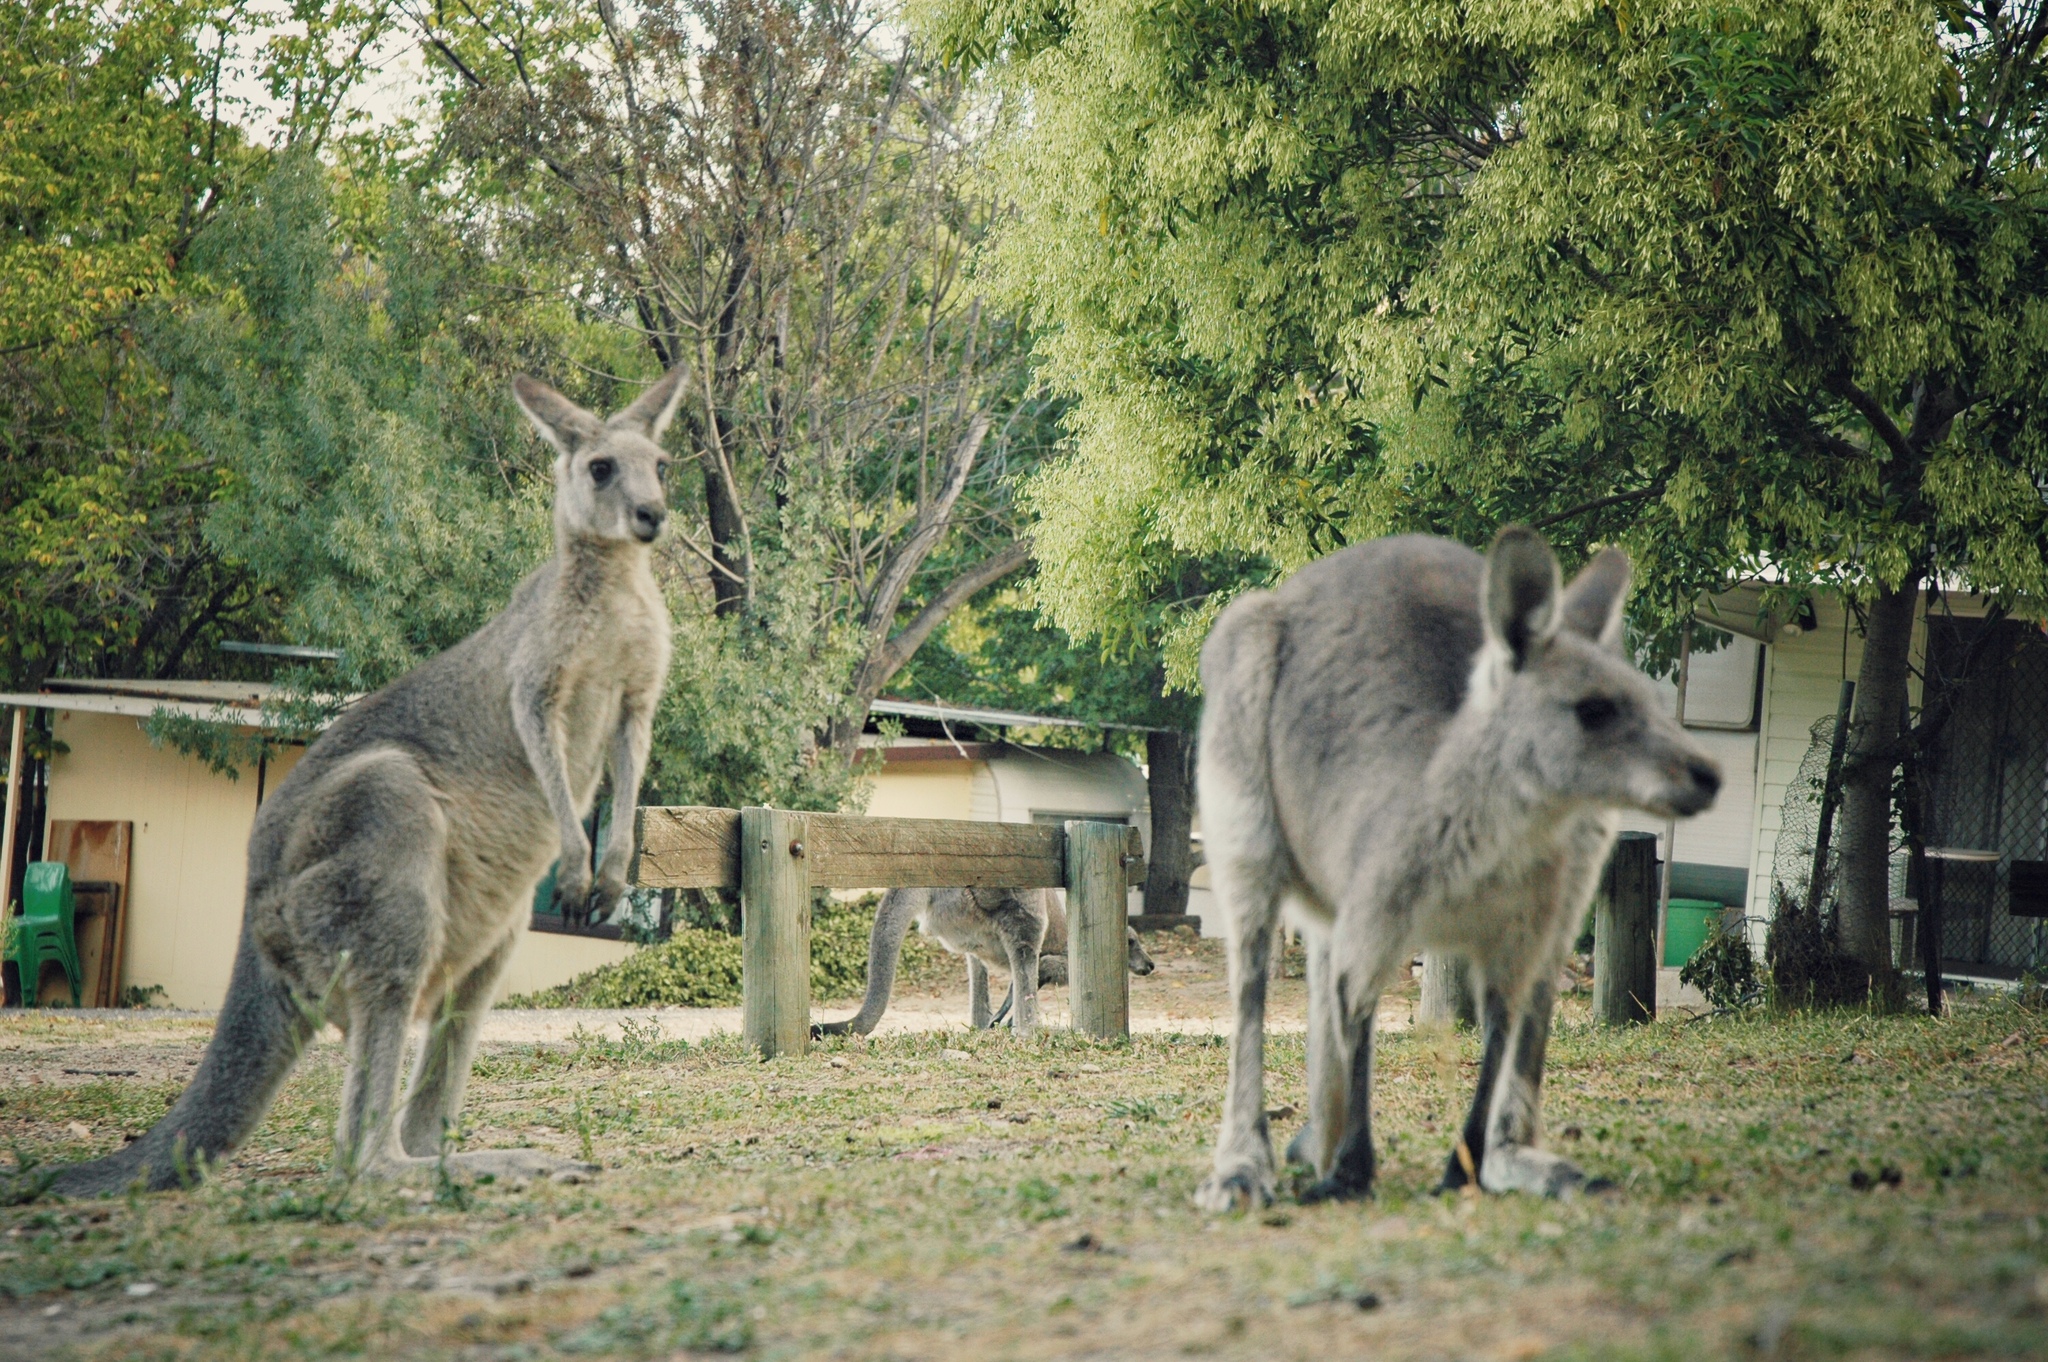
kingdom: Animalia
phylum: Chordata
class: Mammalia
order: Diprotodontia
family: Macropodidae
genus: Macropus
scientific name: Macropus giganteus
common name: Eastern grey kangaroo
